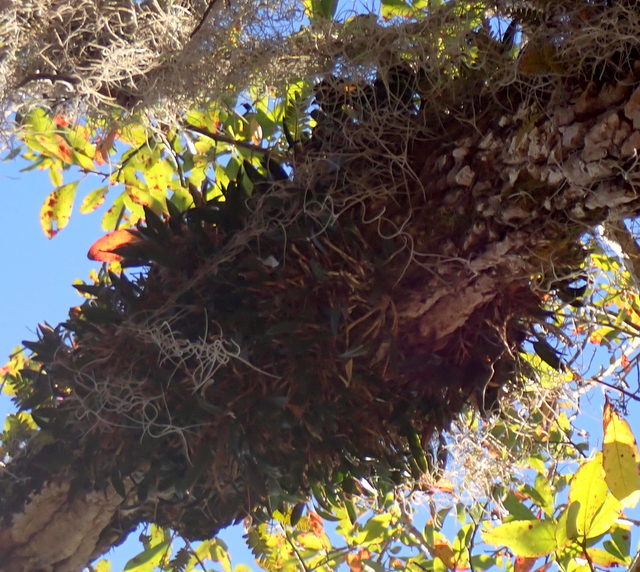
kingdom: Plantae
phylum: Tracheophyta
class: Liliopsida
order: Asparagales
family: Orchidaceae
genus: Epidendrum
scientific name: Epidendrum conopseum
